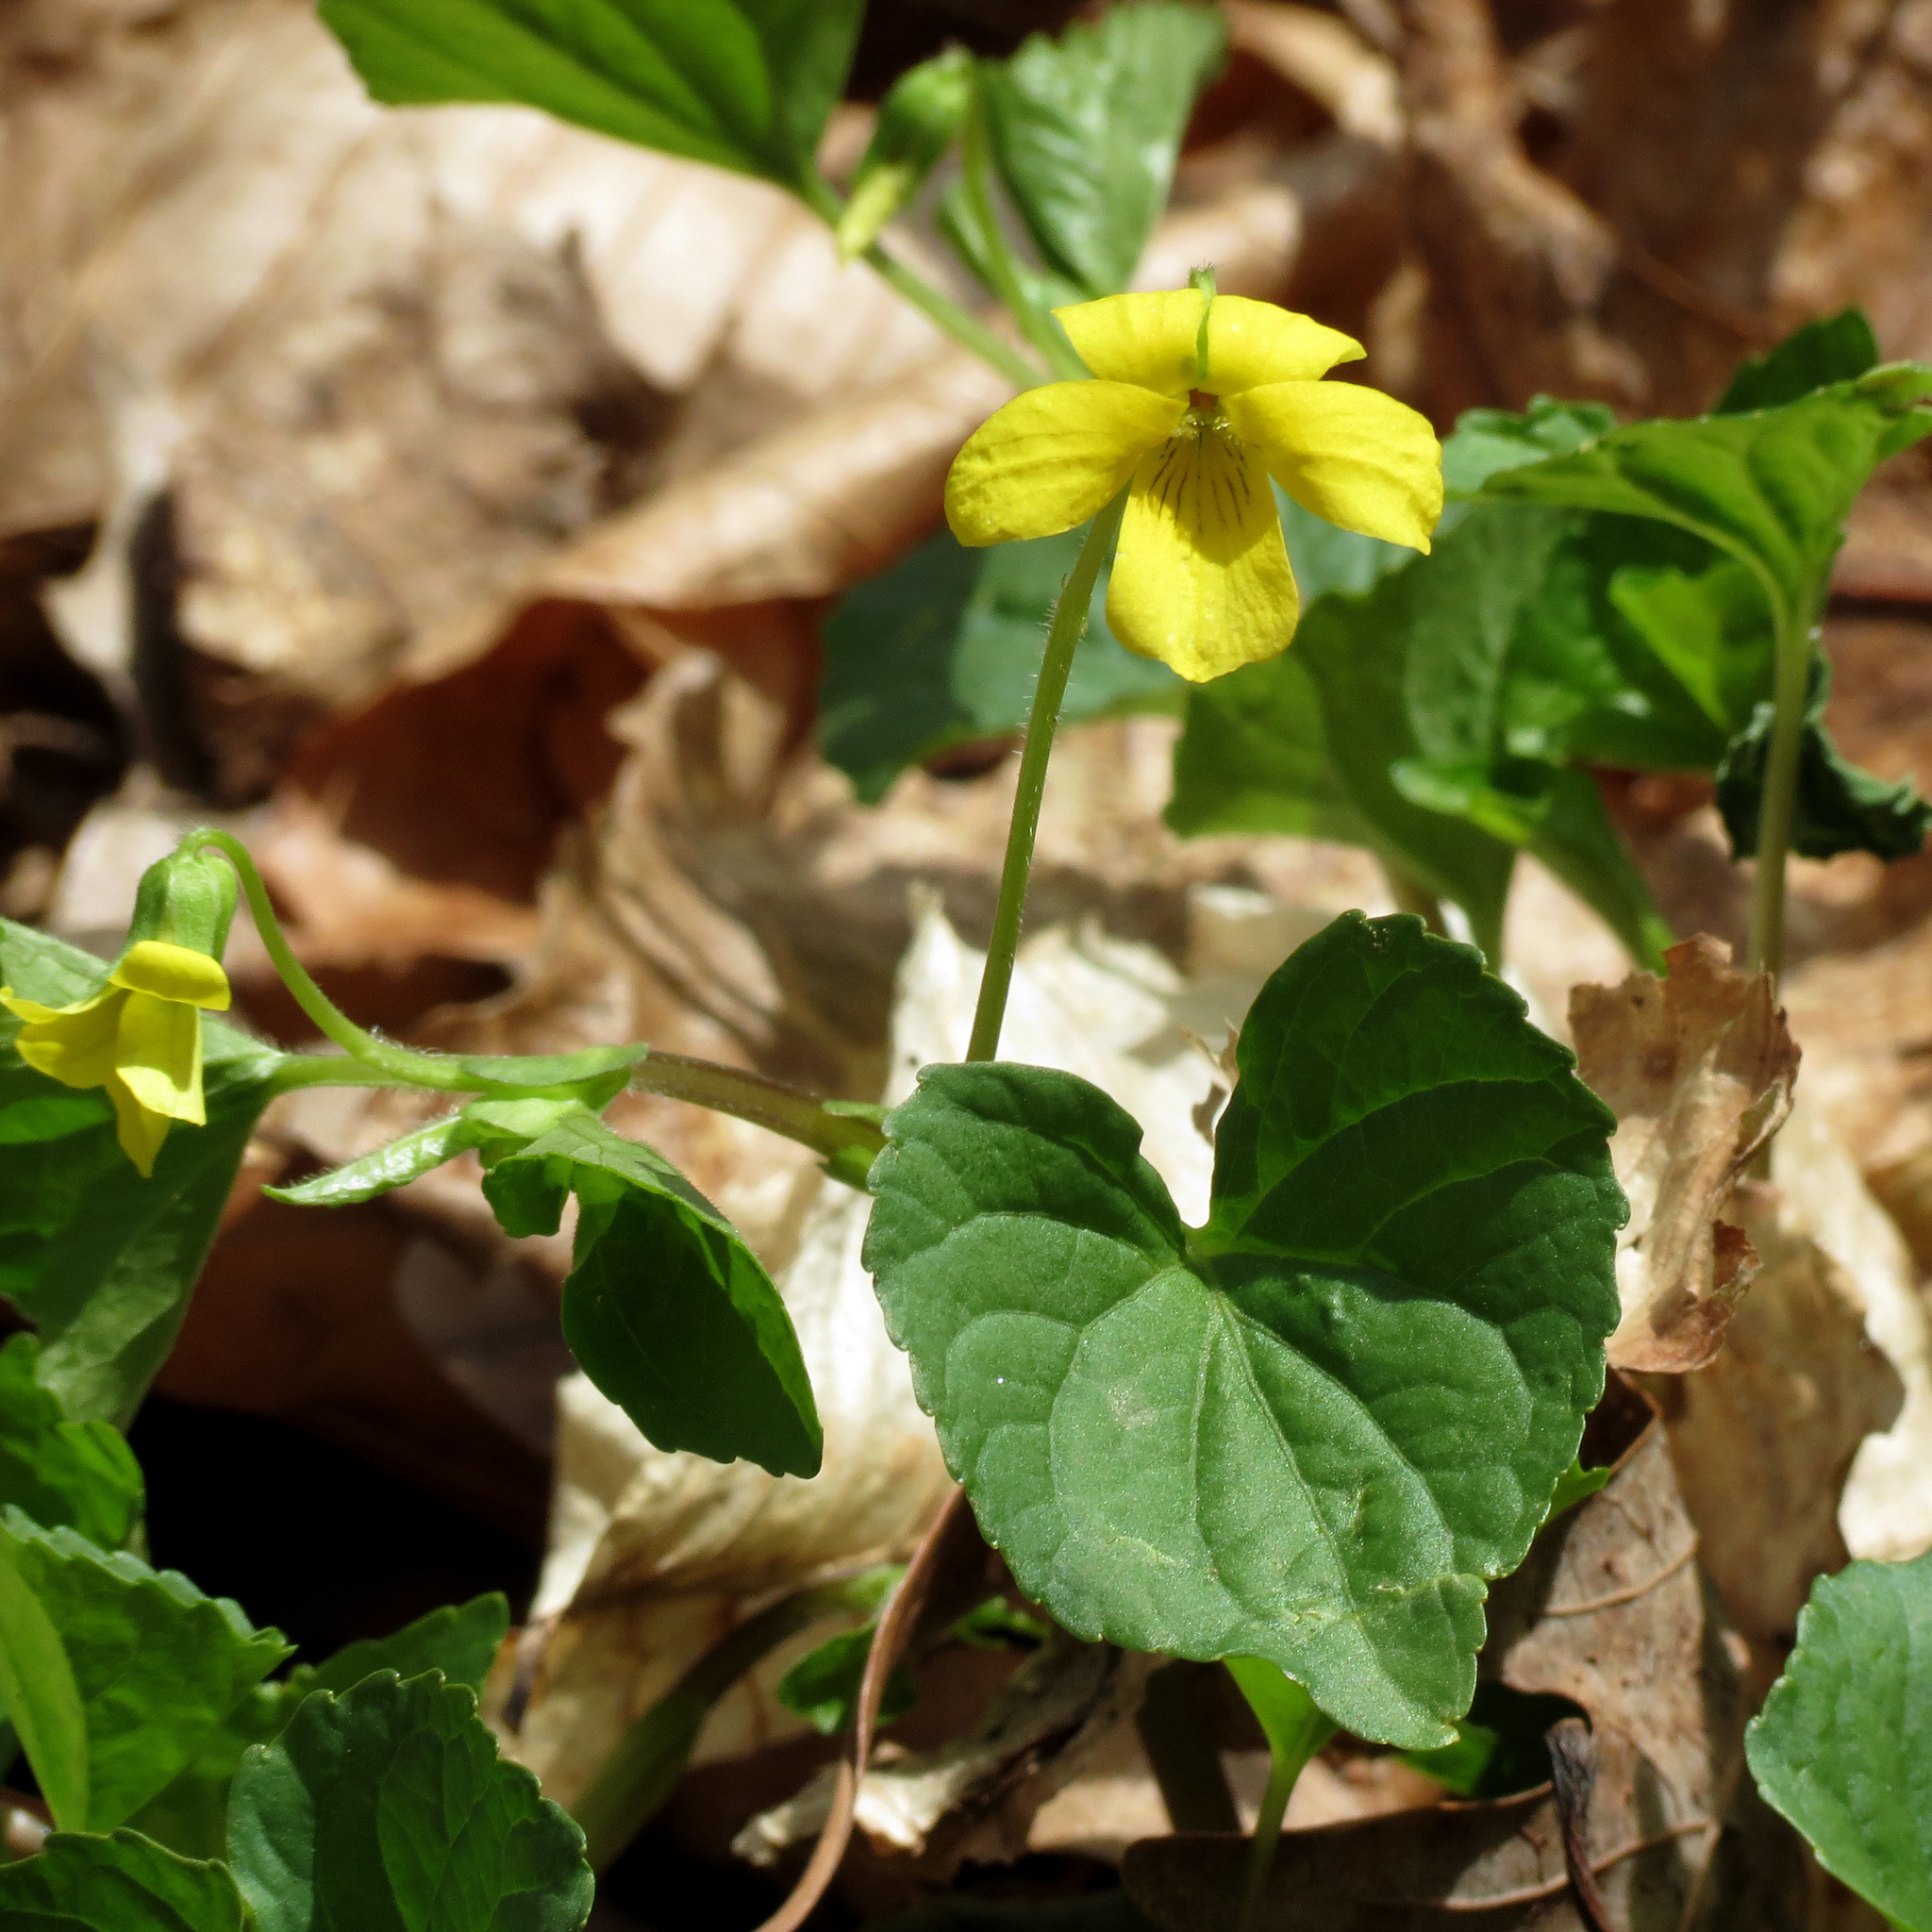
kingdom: Plantae
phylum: Tracheophyta
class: Magnoliopsida
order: Malpighiales
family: Violaceae
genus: Viola
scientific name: Viola eriocarpa
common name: Smooth yellow violet
